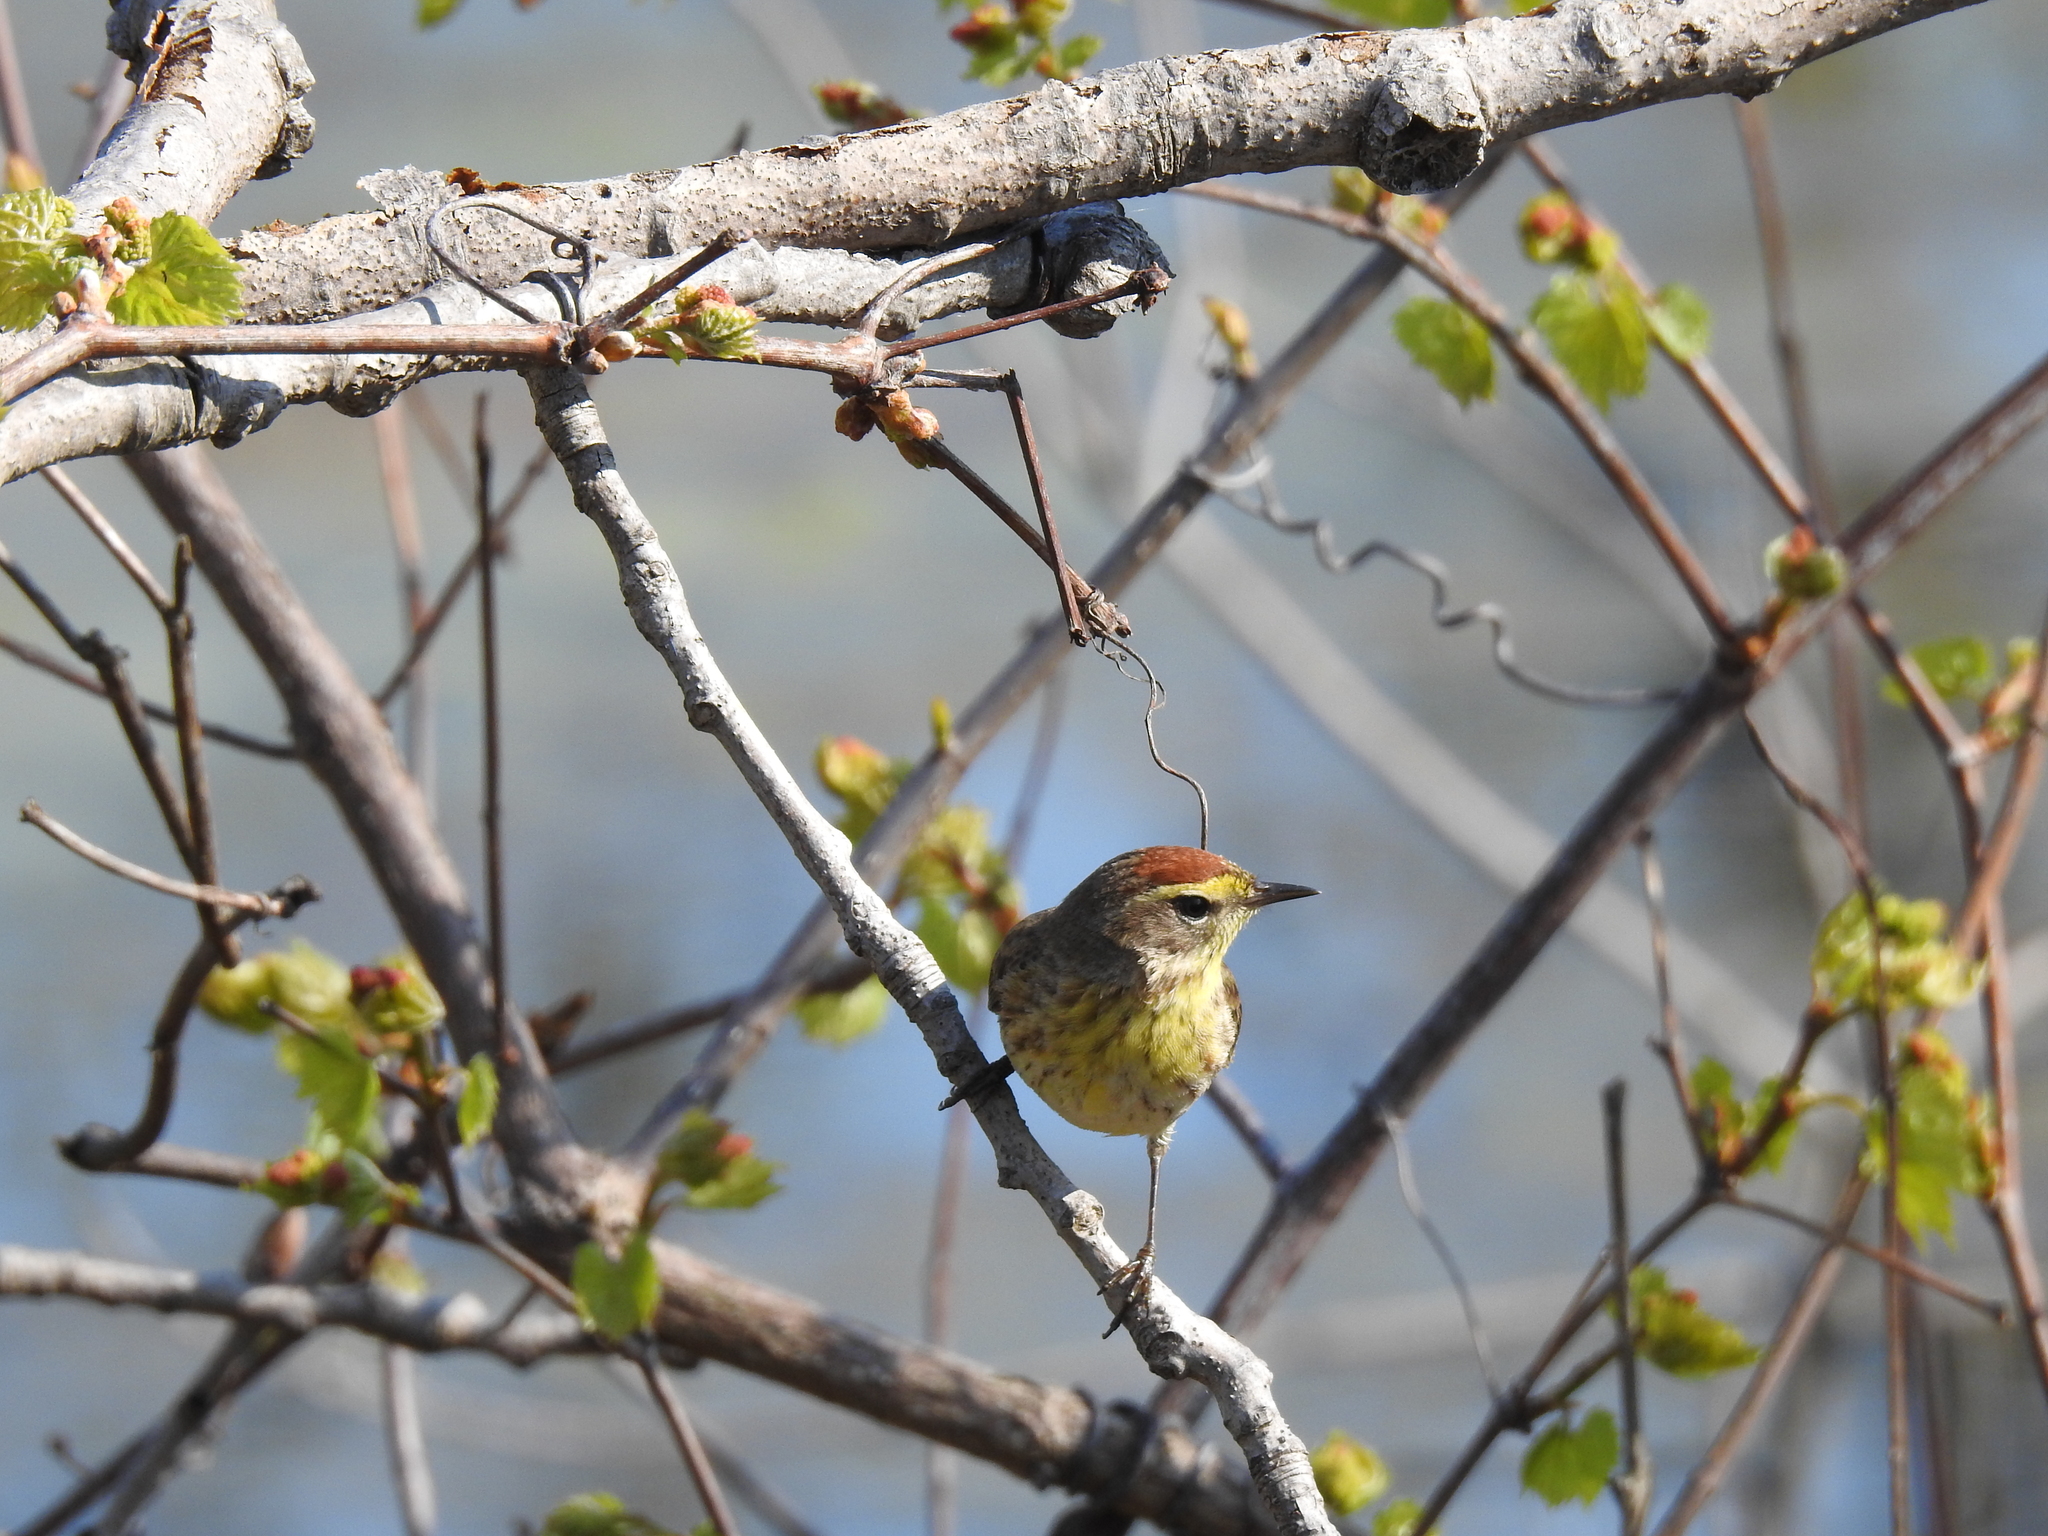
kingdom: Animalia
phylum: Chordata
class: Aves
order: Passeriformes
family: Parulidae
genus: Setophaga
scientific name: Setophaga palmarum
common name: Palm warbler
